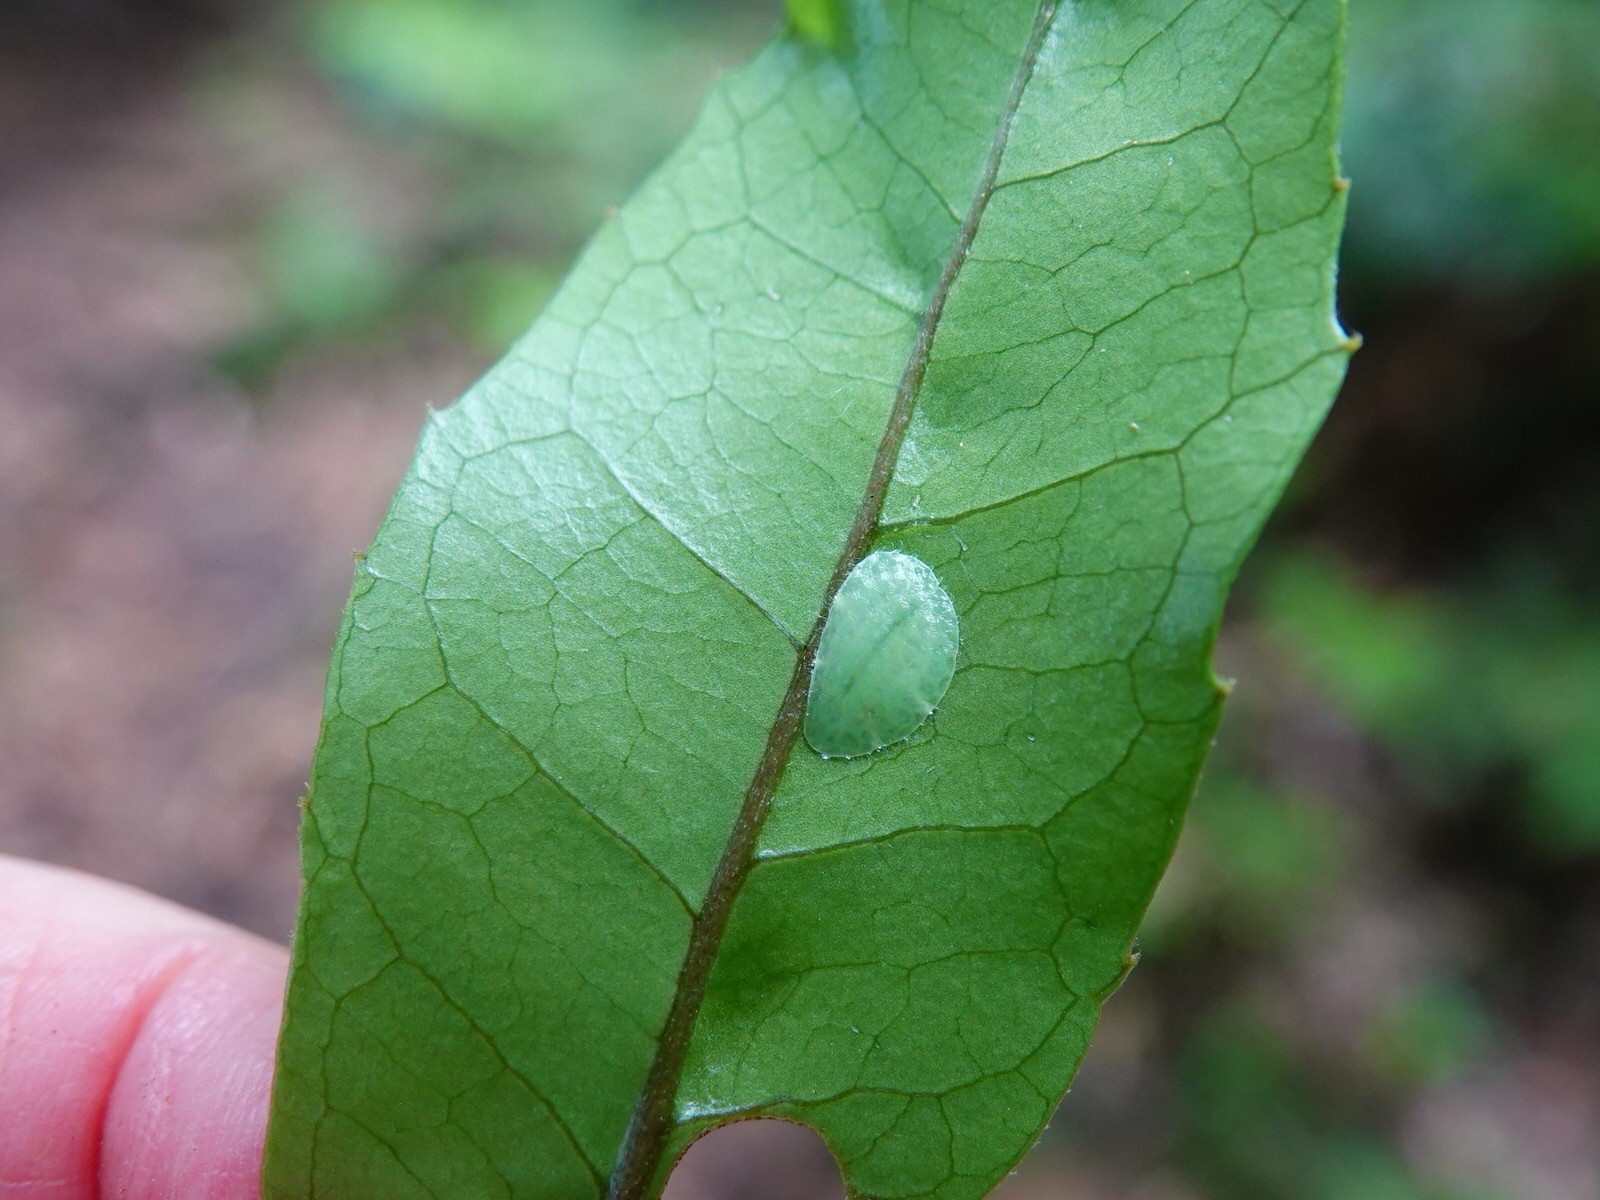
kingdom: Animalia
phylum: Arthropoda
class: Insecta
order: Hemiptera
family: Coccidae
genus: Ctenochiton
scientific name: Ctenochiton paraviridis
